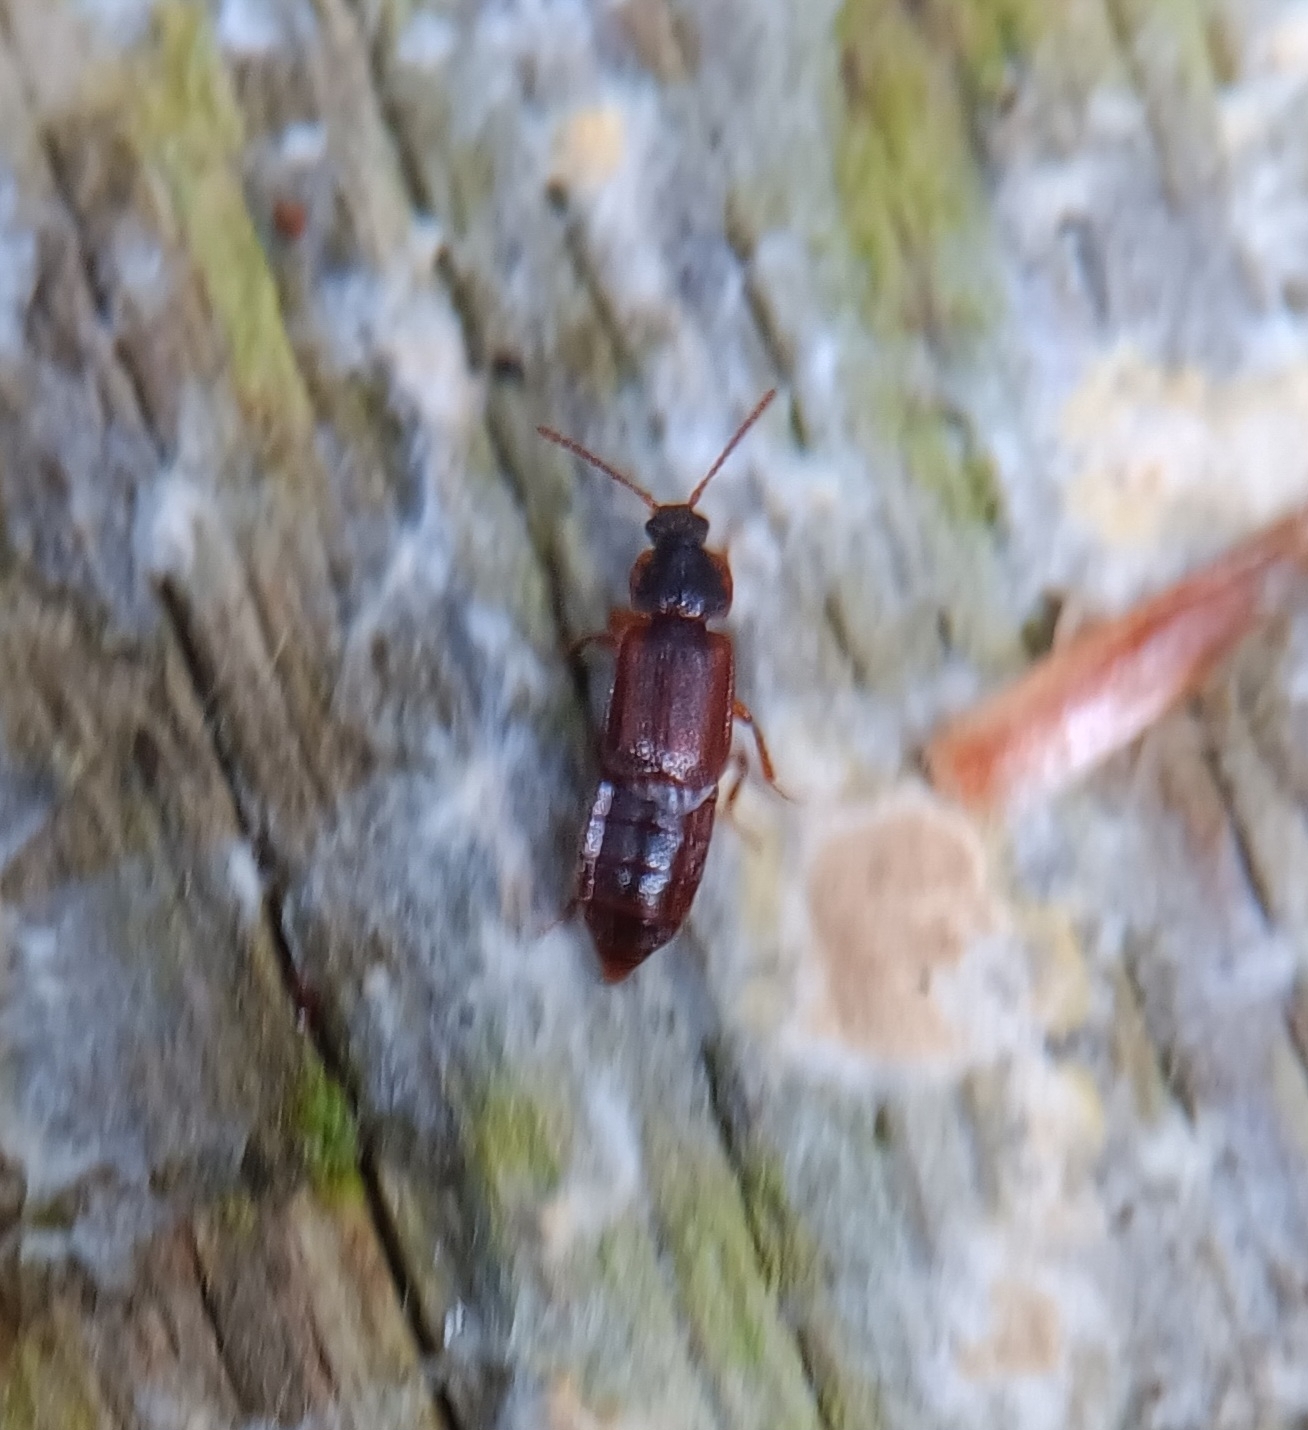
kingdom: Animalia
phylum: Arthropoda
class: Insecta
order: Coleoptera
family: Staphylinidae
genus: Acidota
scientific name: Acidota subcarinata
